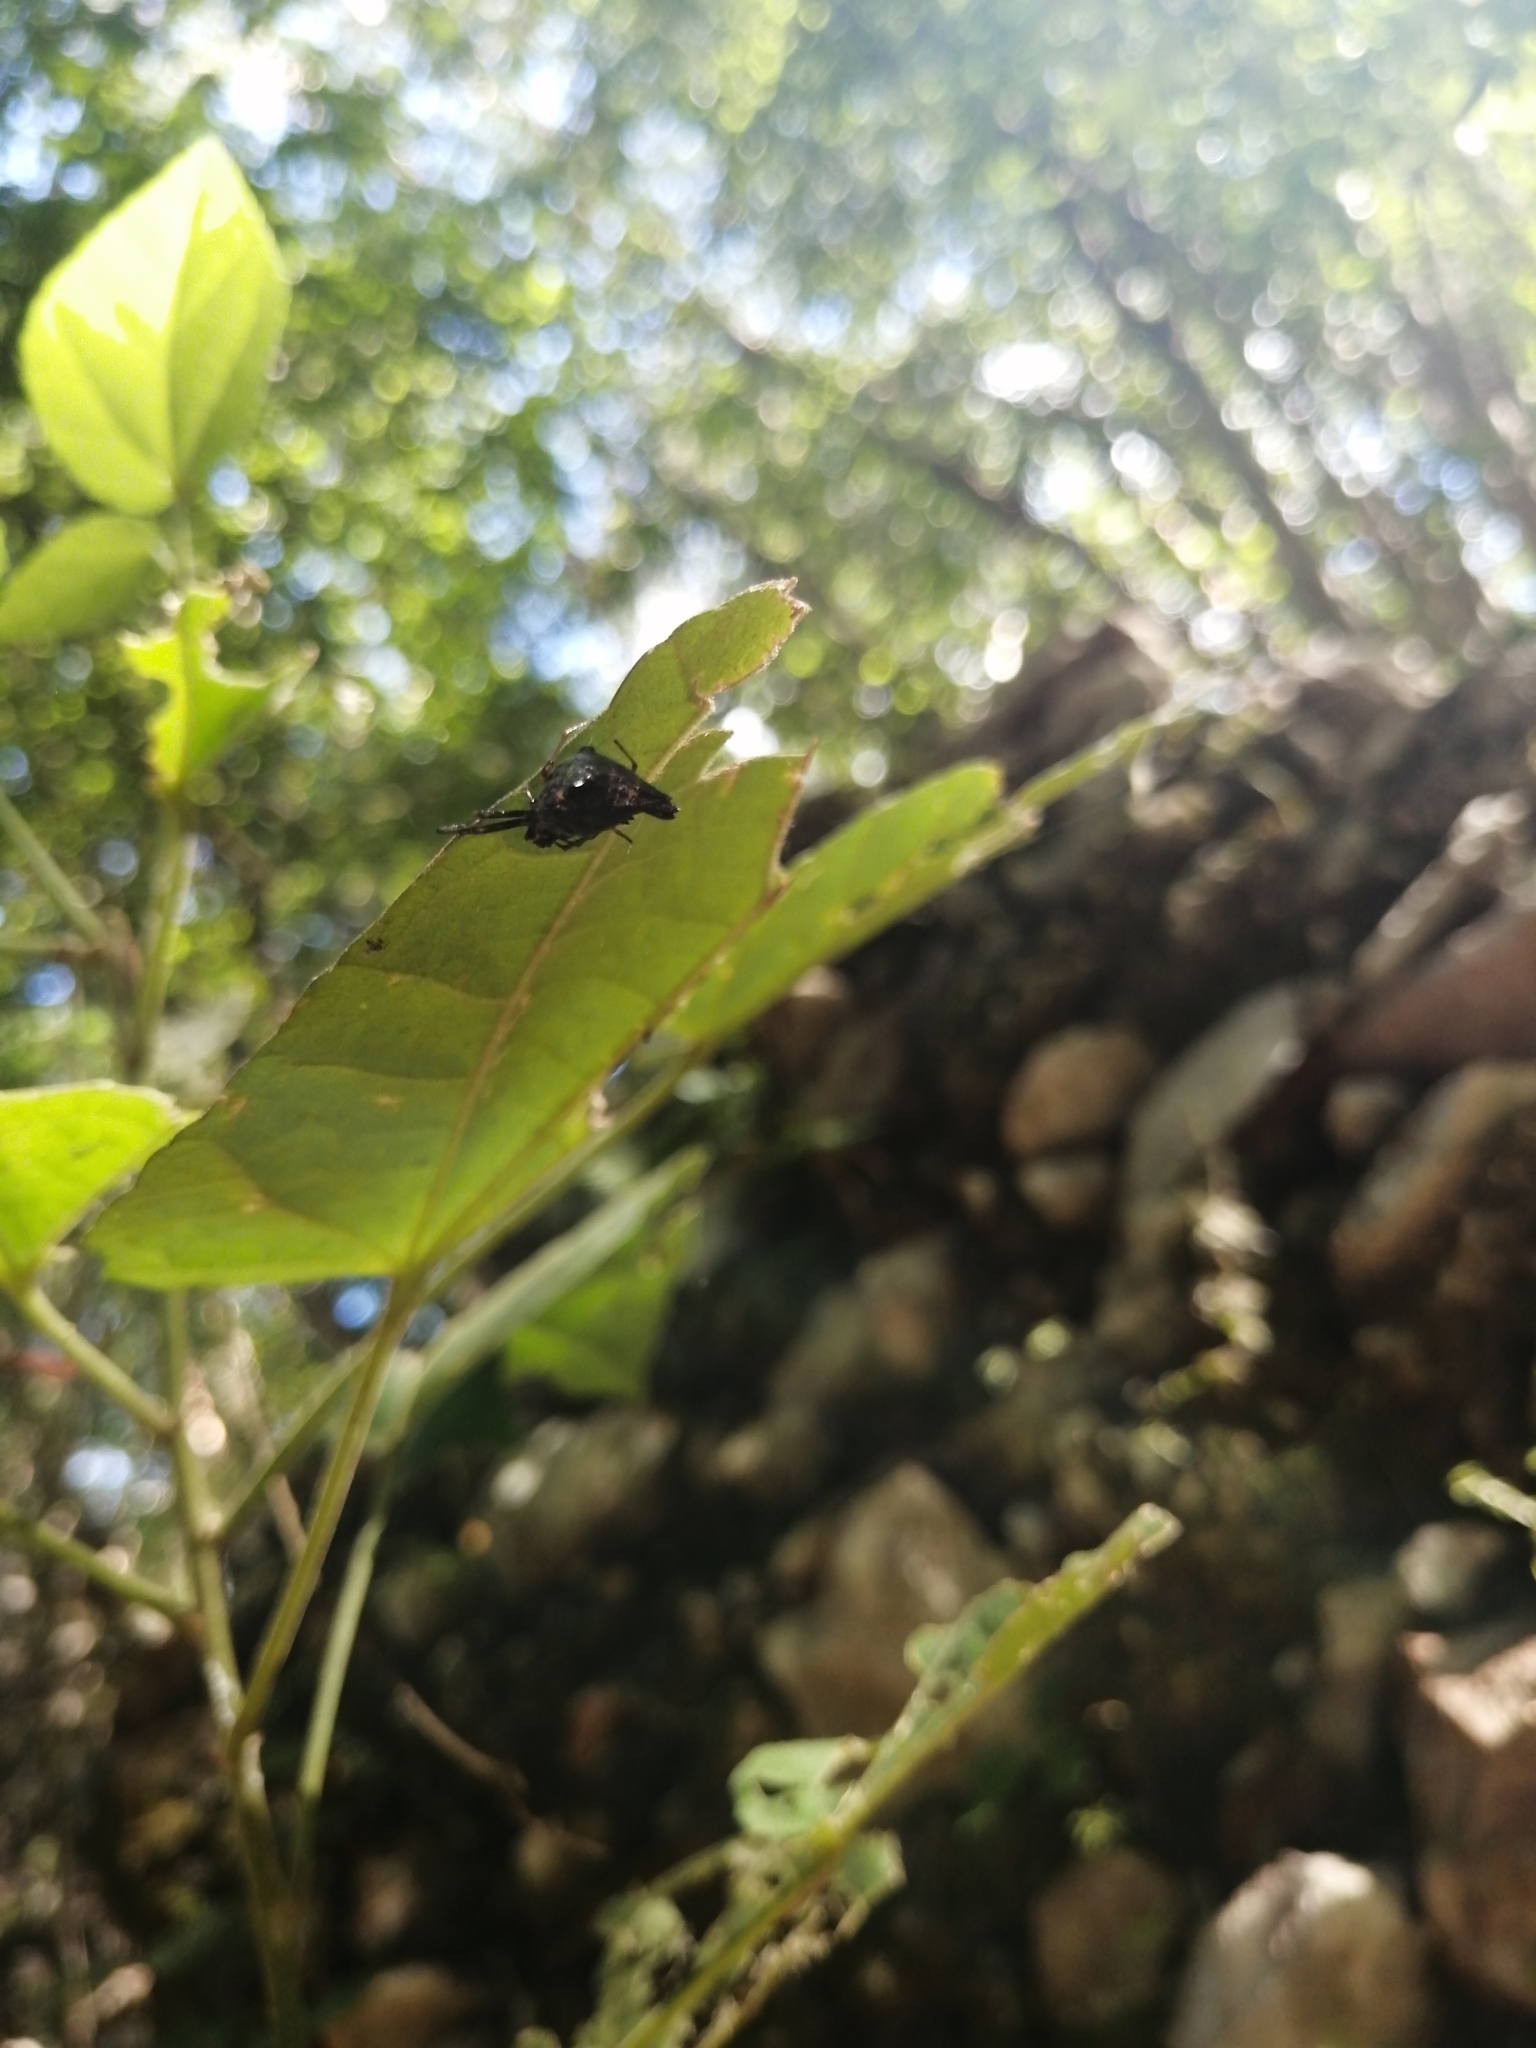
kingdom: Animalia
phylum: Arthropoda
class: Arachnida
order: Araneae
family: Araneidae
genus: Micrathena
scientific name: Micrathena triserrata
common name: Orb weavers
